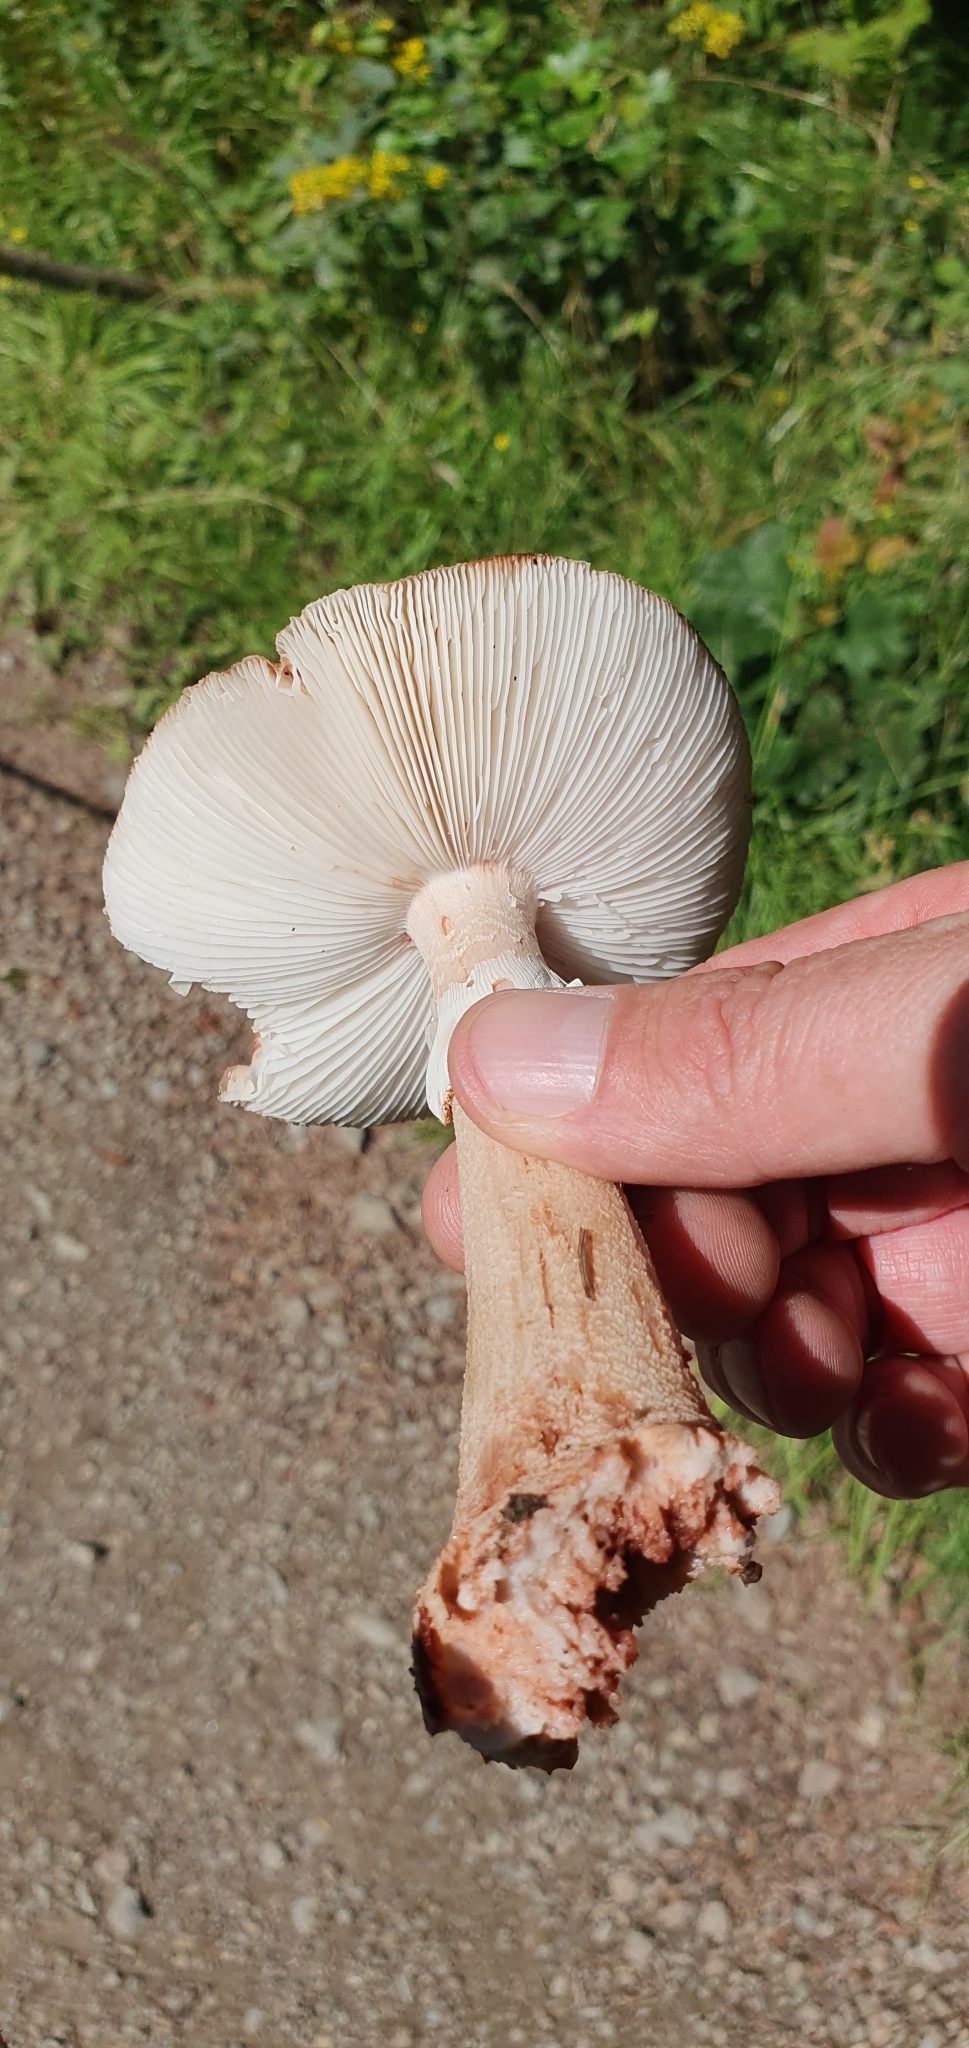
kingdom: Fungi
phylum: Basidiomycota
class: Agaricomycetes
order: Agaricales
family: Amanitaceae
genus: Amanita
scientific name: Amanita rubescens
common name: Blusher
